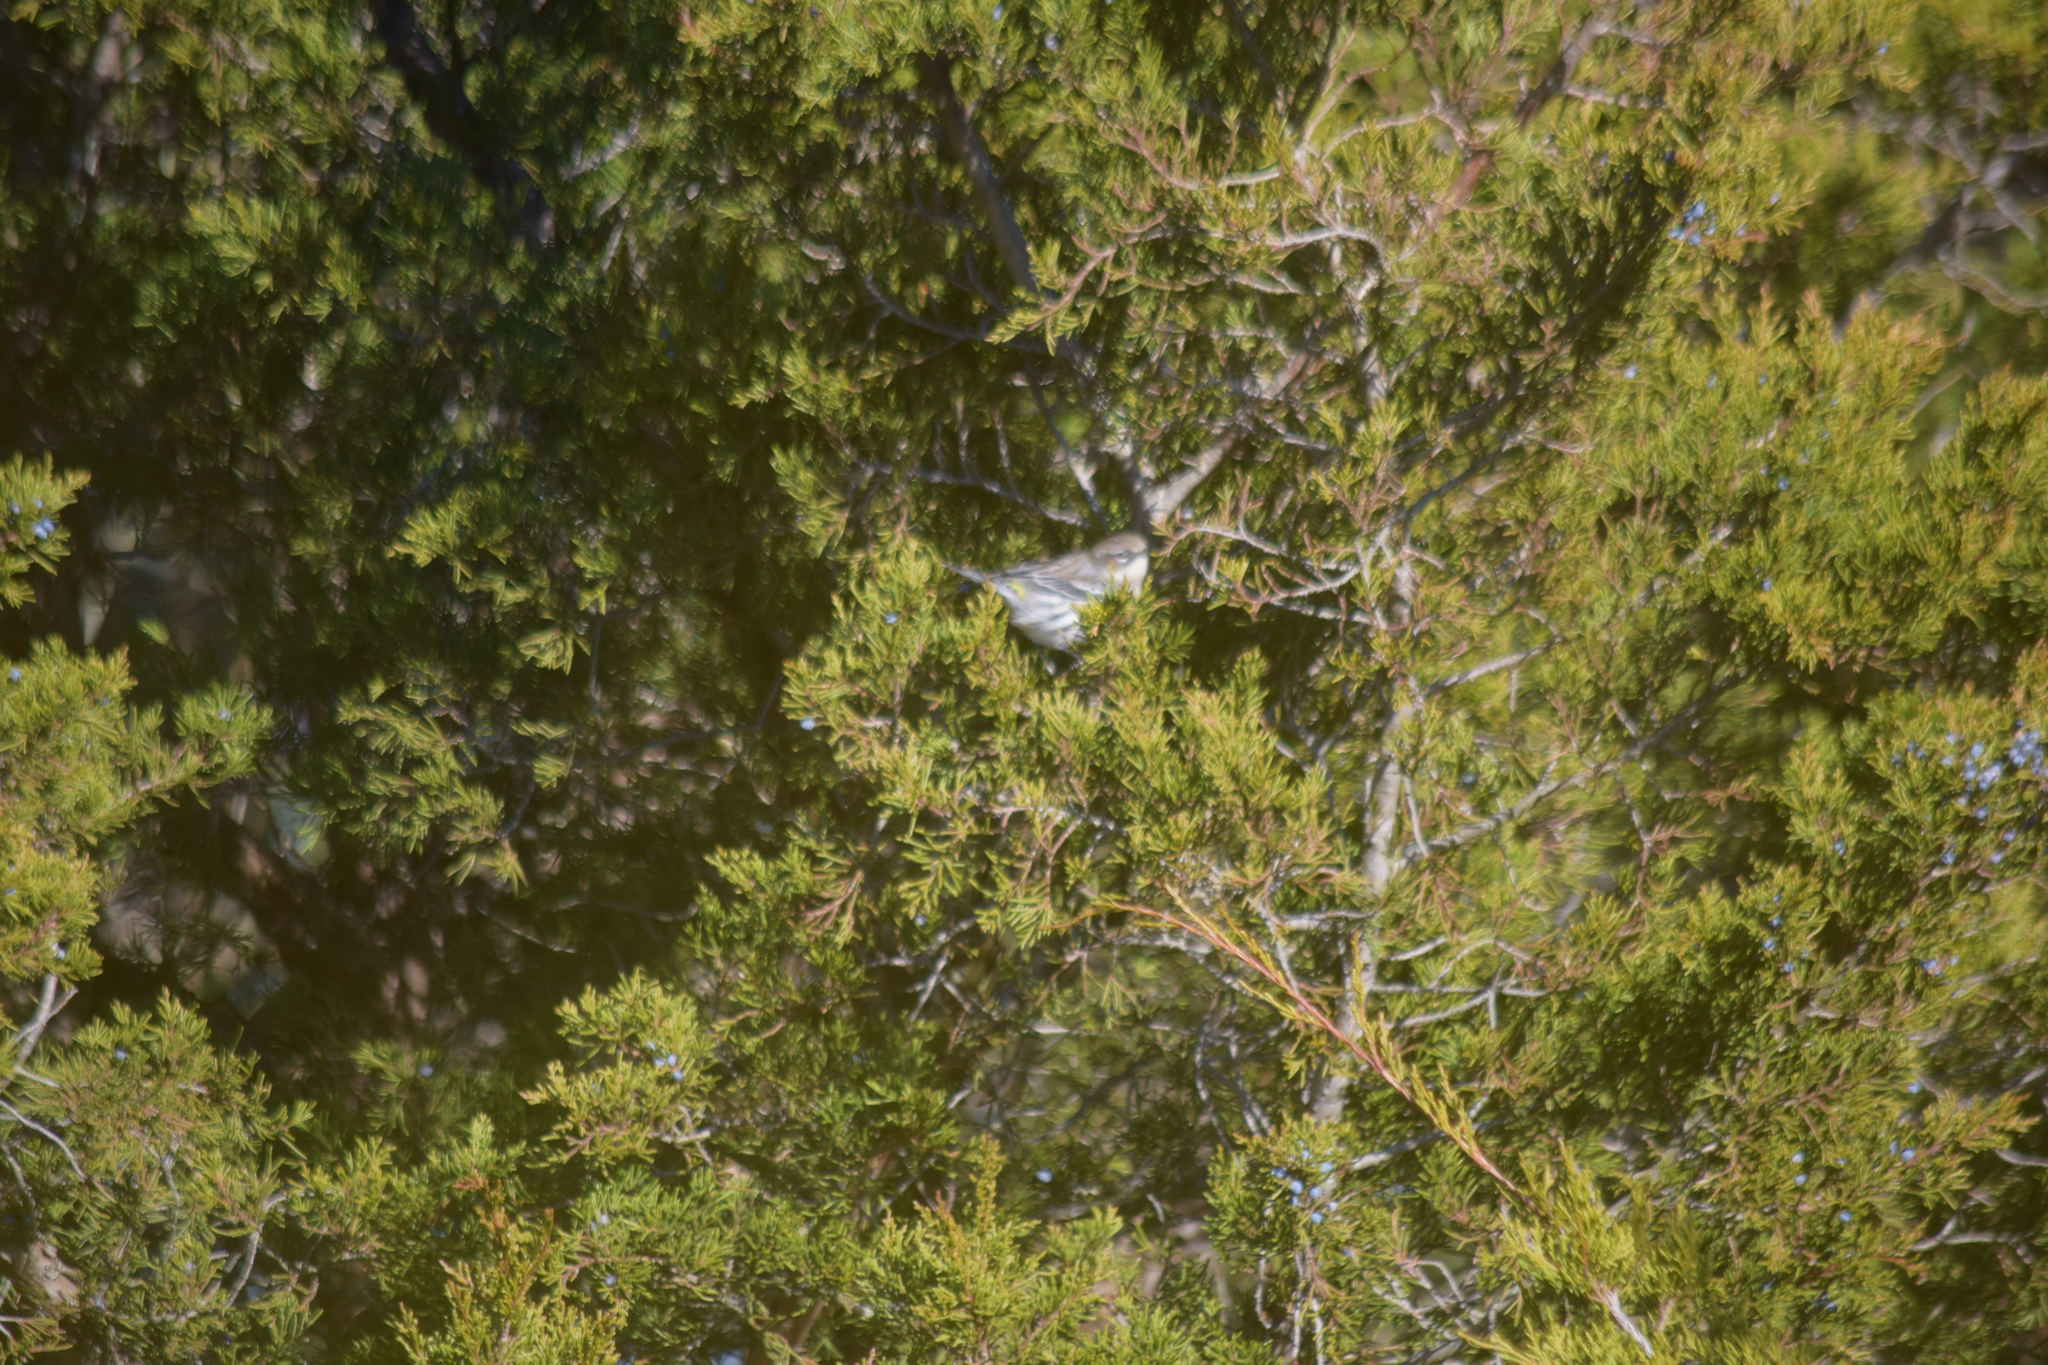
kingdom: Animalia
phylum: Chordata
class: Aves
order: Passeriformes
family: Parulidae
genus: Setophaga
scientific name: Setophaga coronata
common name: Myrtle warbler
